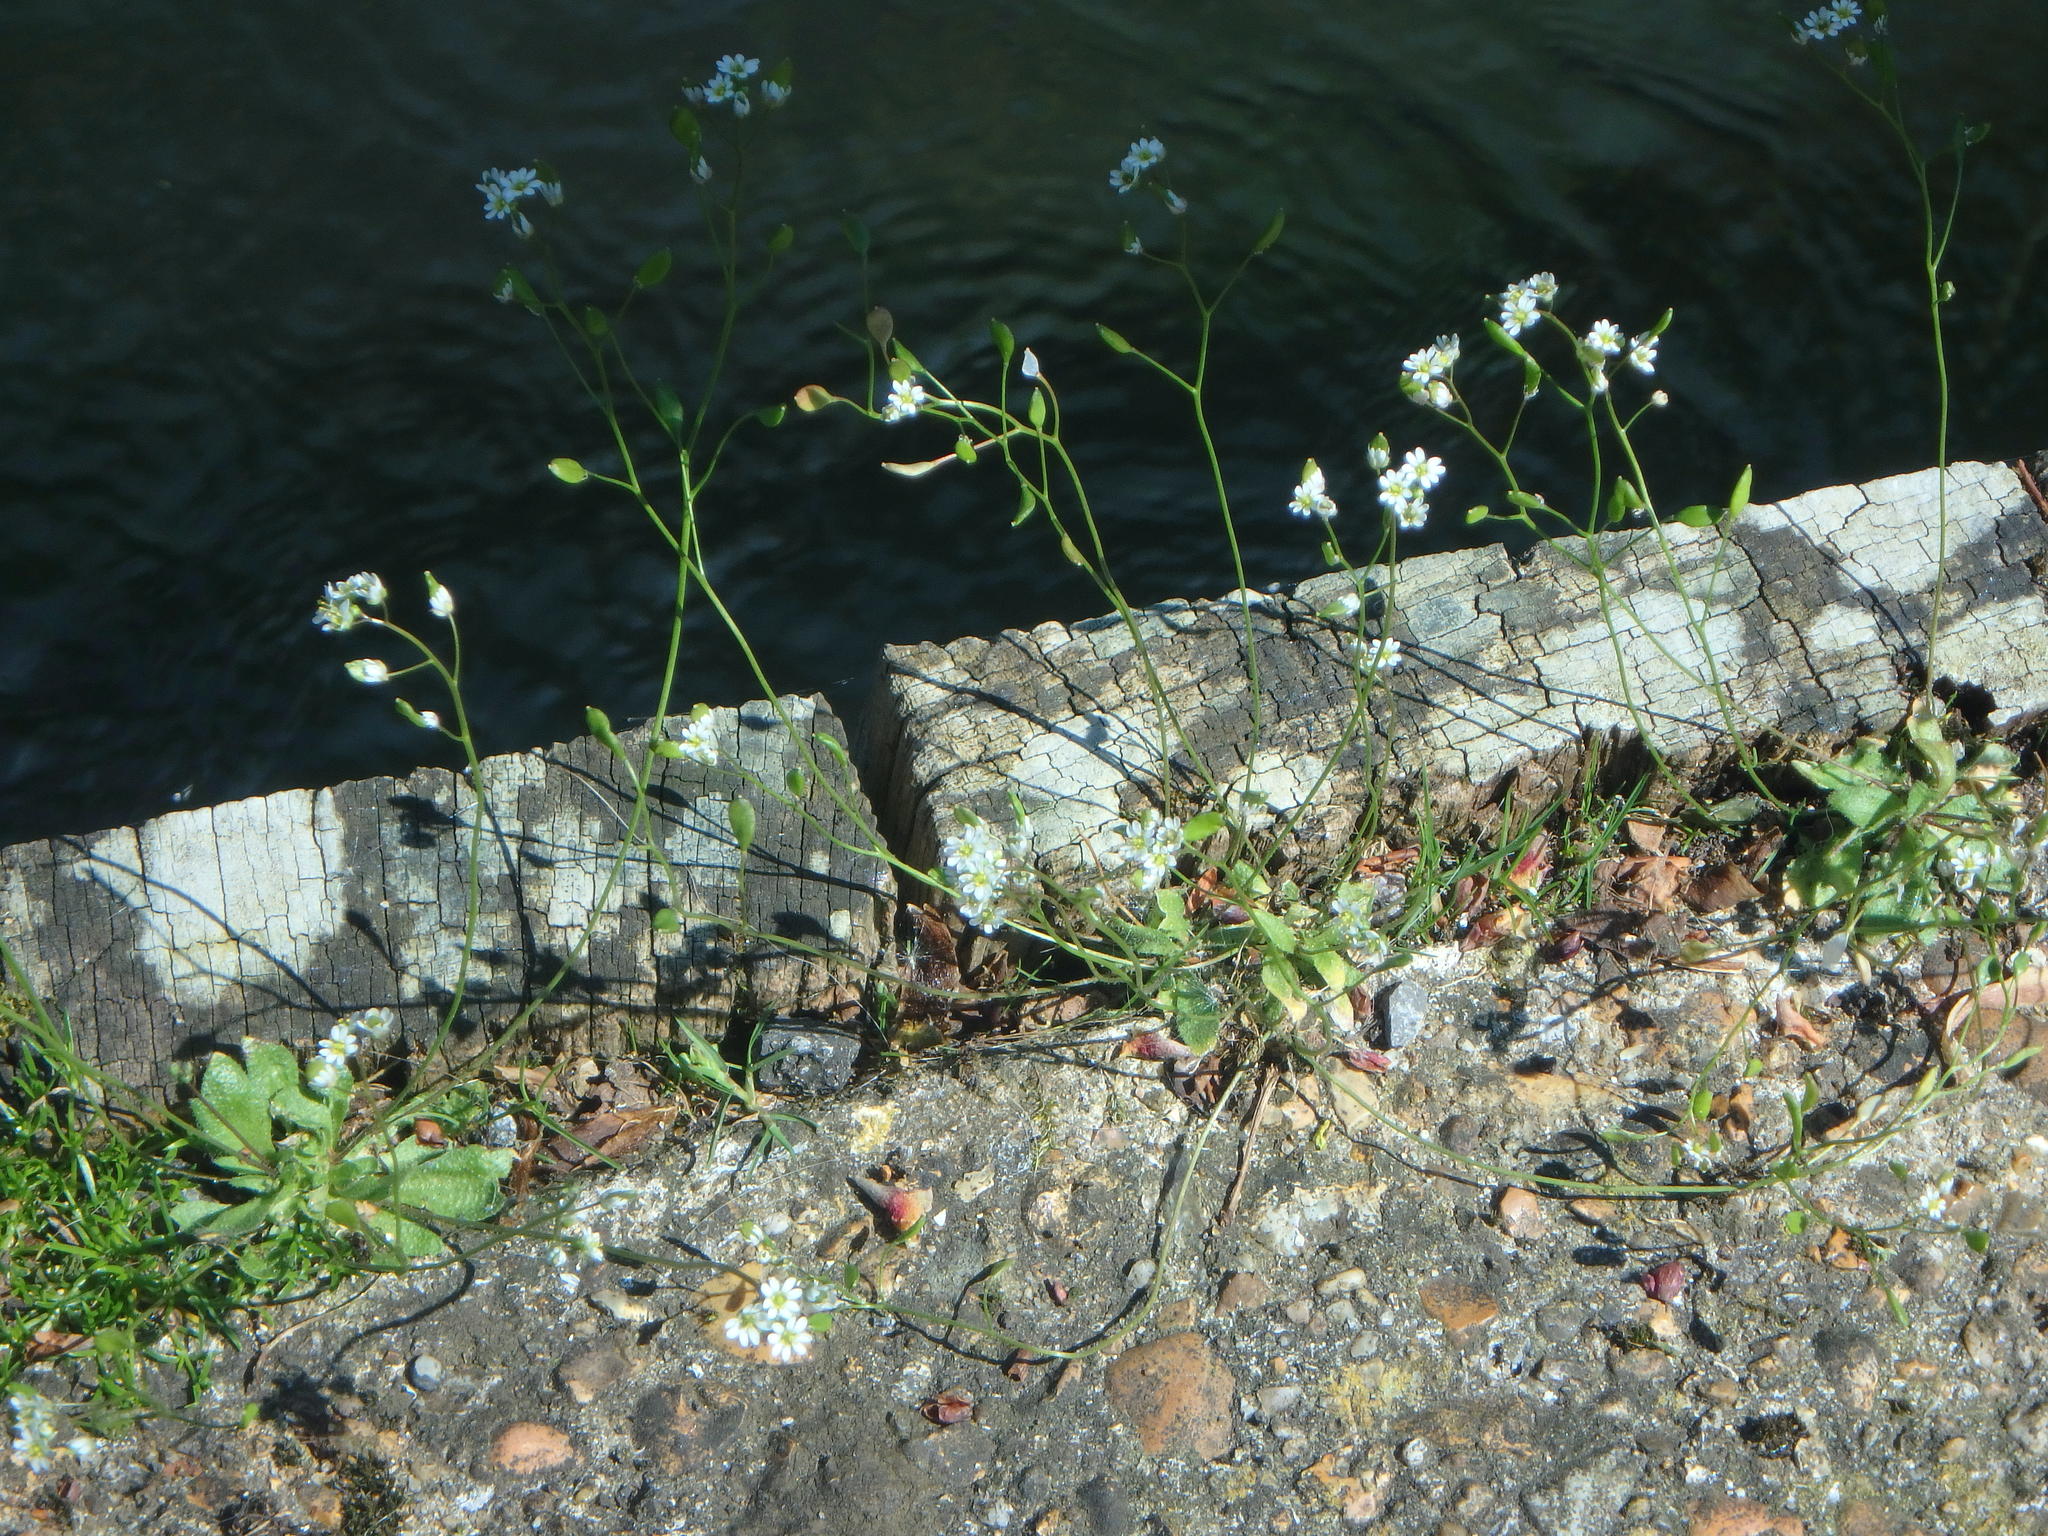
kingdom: Plantae
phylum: Tracheophyta
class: Magnoliopsida
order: Brassicales
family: Brassicaceae
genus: Draba
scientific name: Draba verna
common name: Spring draba
